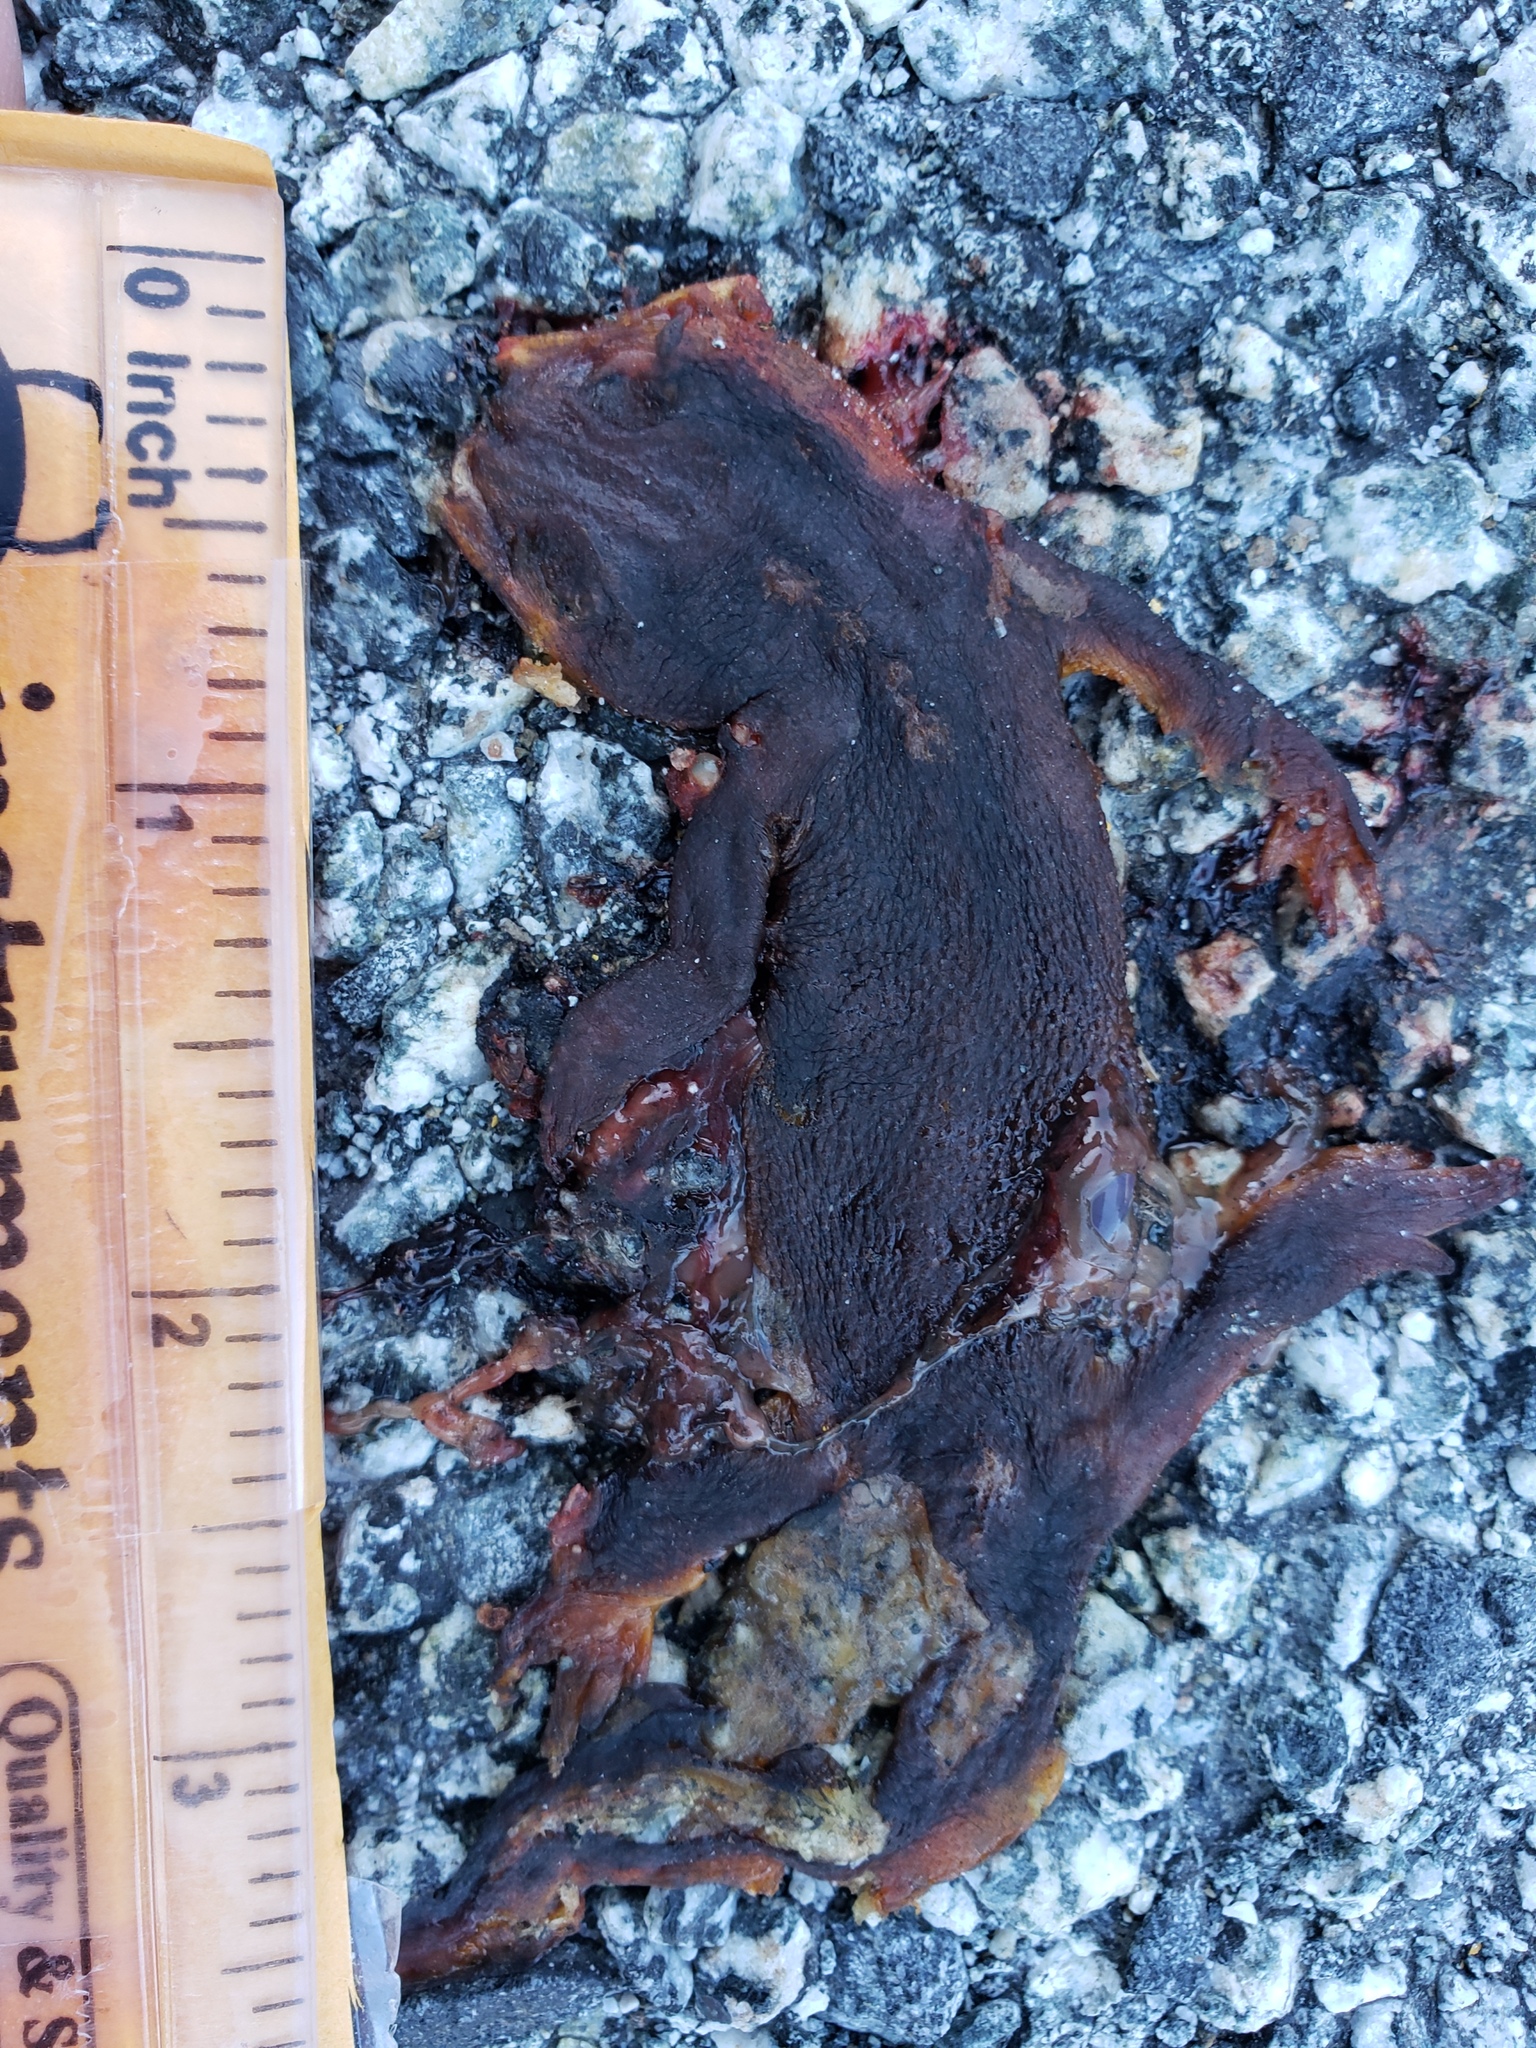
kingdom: Animalia
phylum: Chordata
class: Amphibia
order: Caudata
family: Salamandridae
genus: Taricha
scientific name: Taricha
